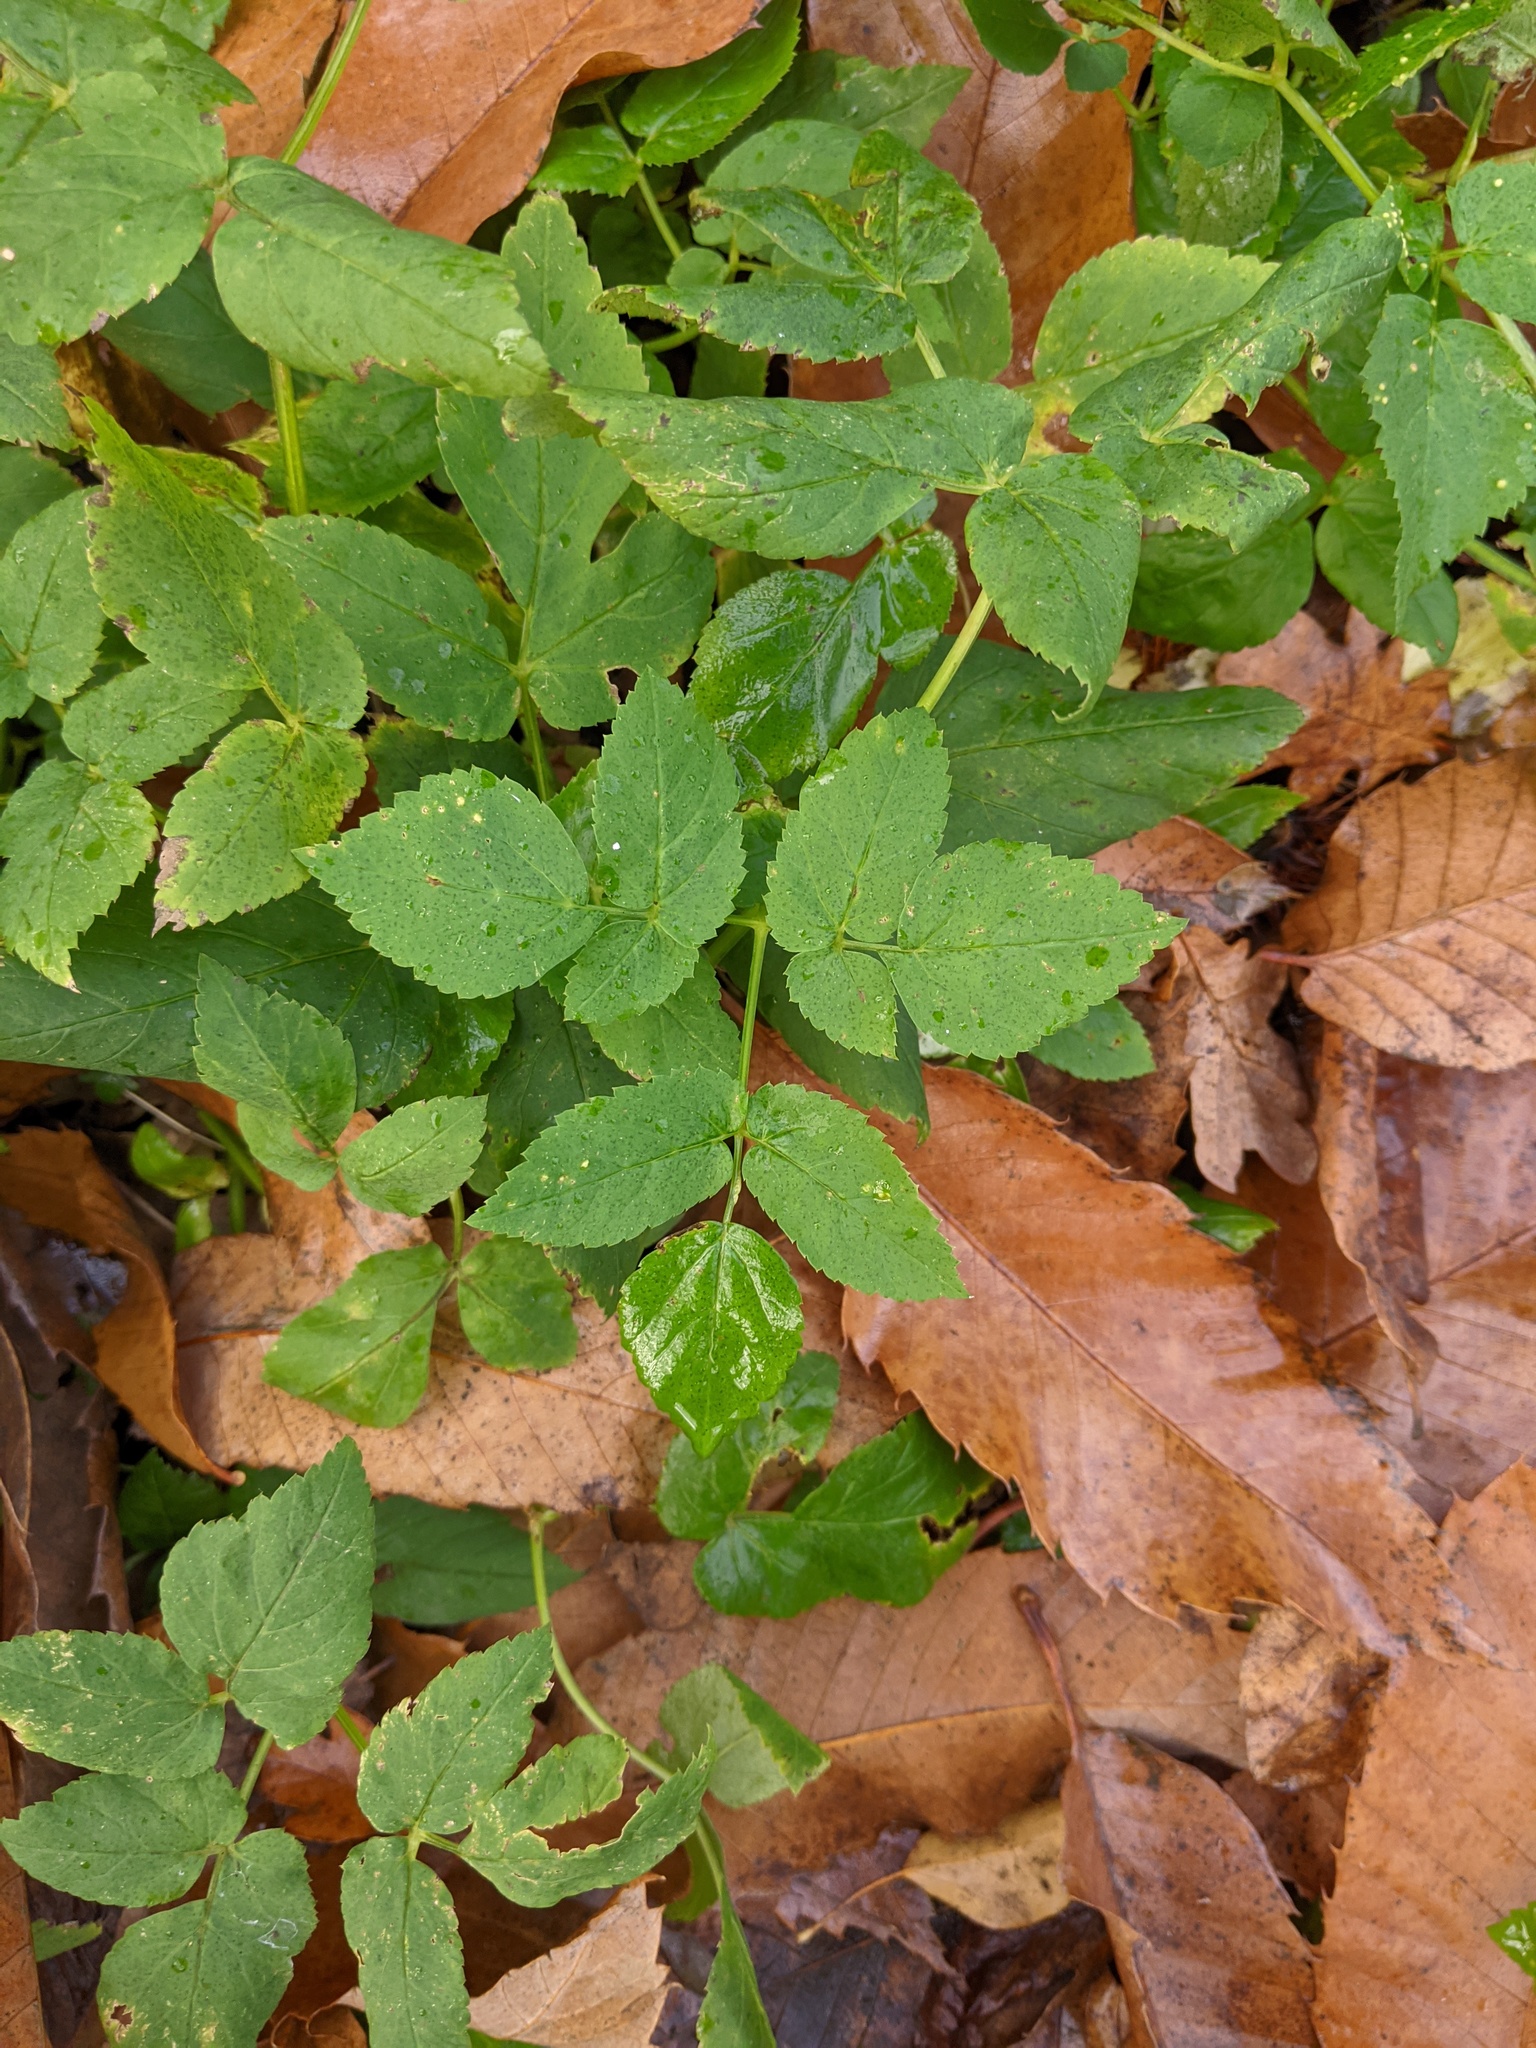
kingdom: Plantae
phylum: Tracheophyta
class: Magnoliopsida
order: Apiales
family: Apiaceae
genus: Aegopodium
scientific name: Aegopodium podagraria
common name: Ground-elder
